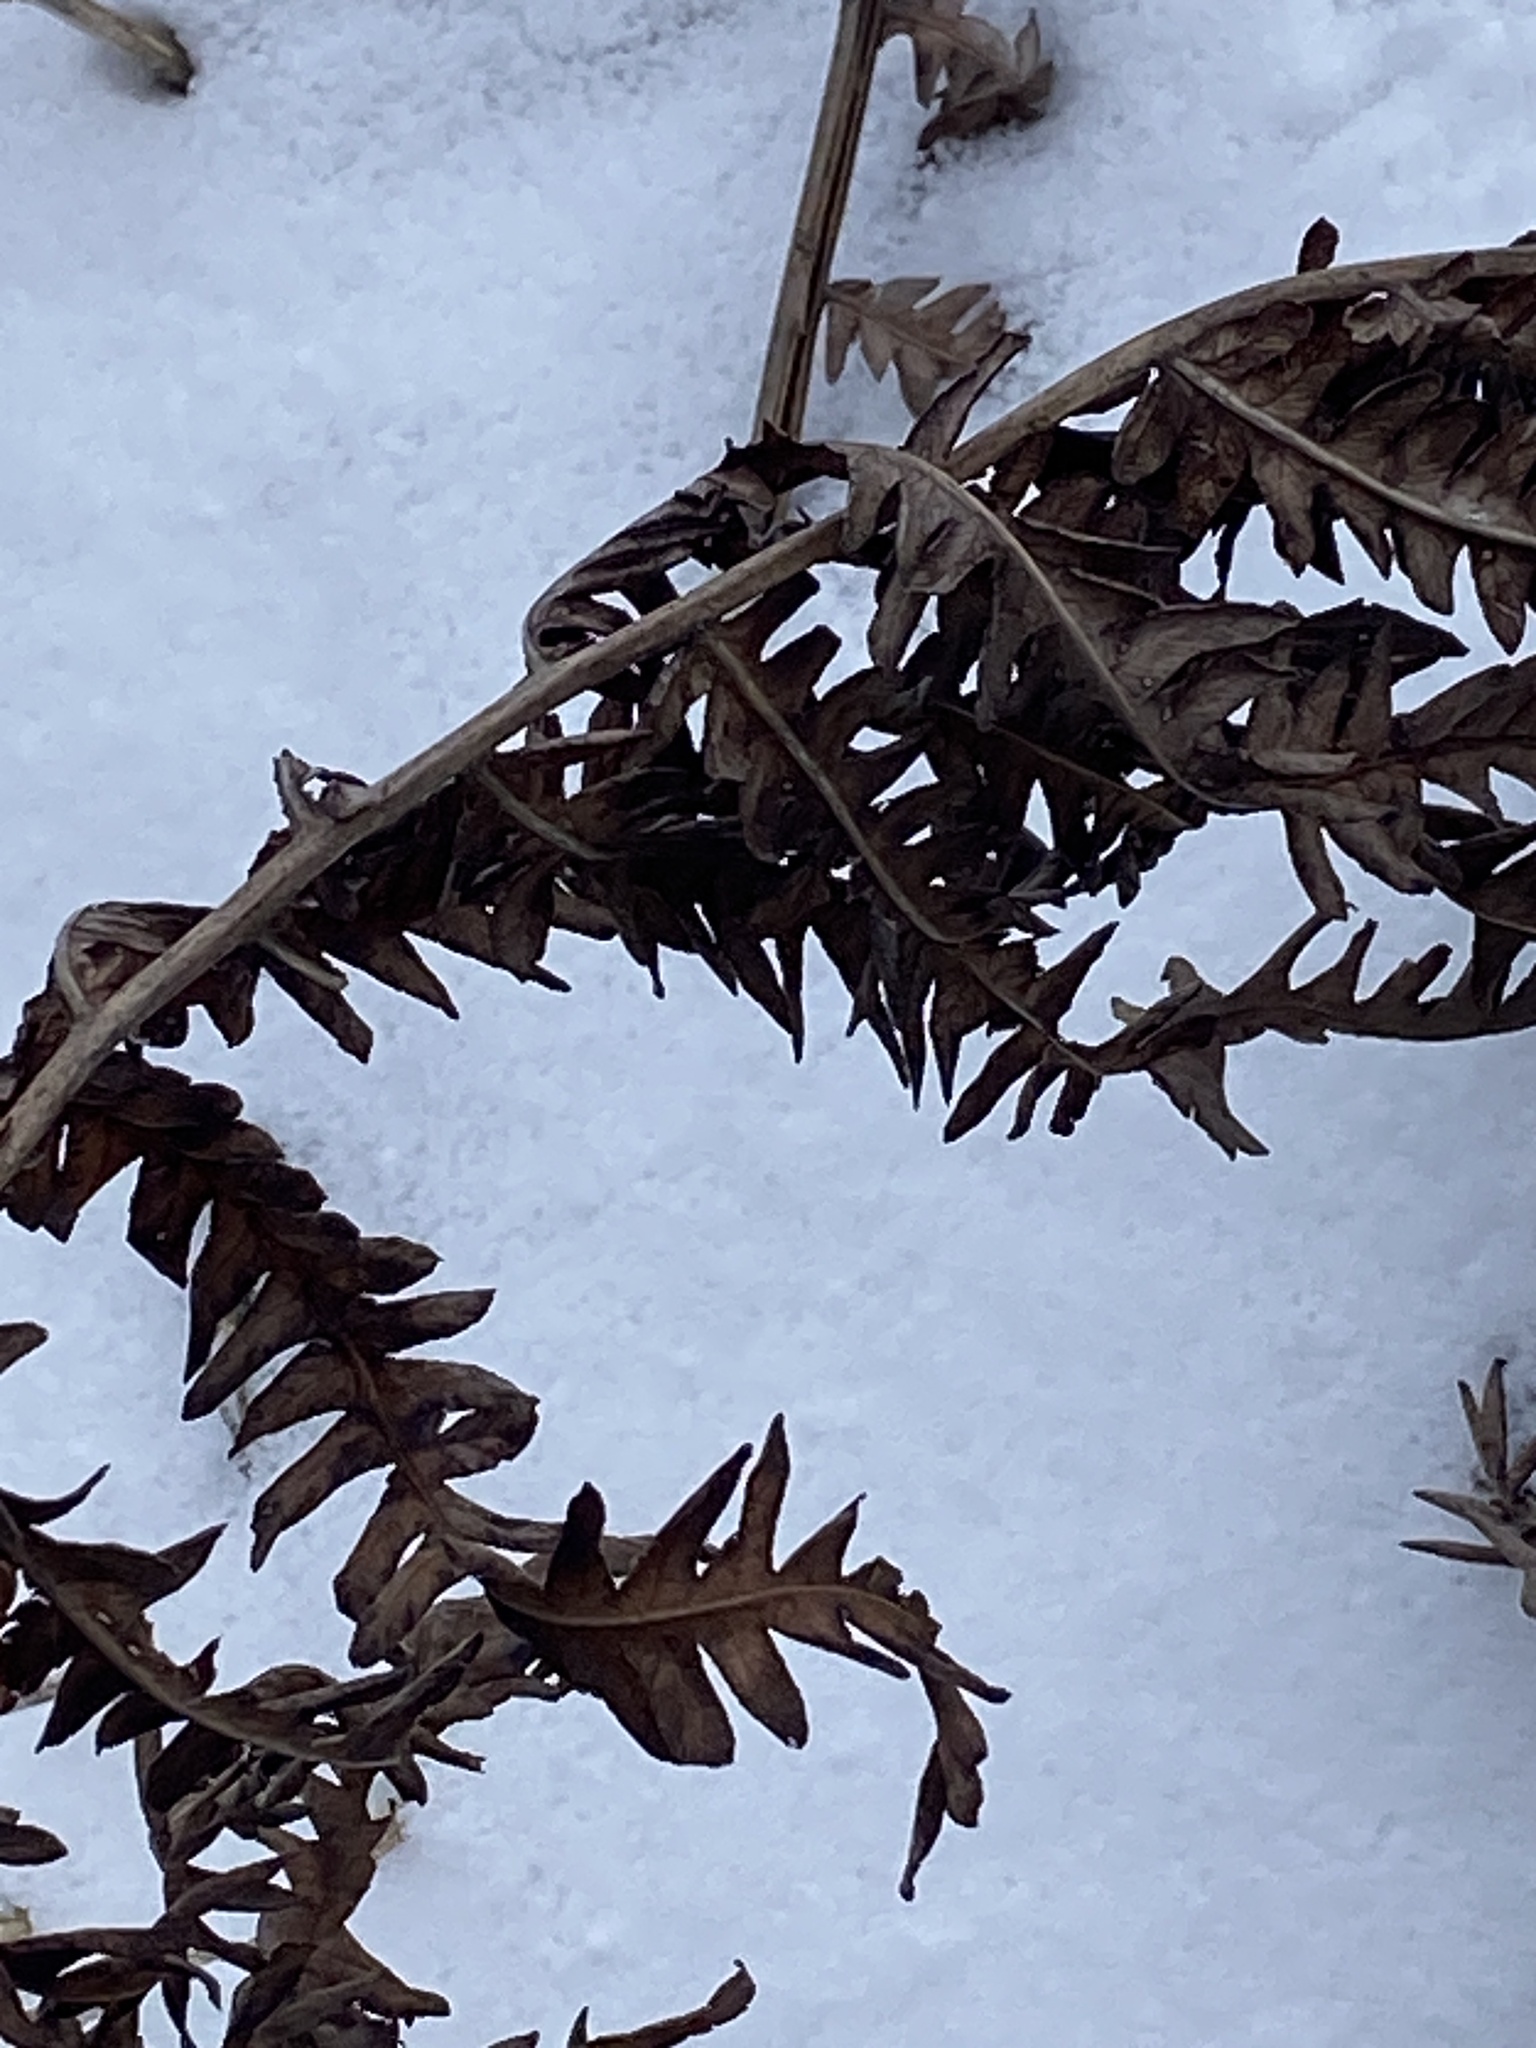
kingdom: Plantae
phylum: Tracheophyta
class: Polypodiopsida
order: Polypodiales
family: Onocleaceae
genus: Matteuccia
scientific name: Matteuccia struthiopteris
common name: Ostrich fern
